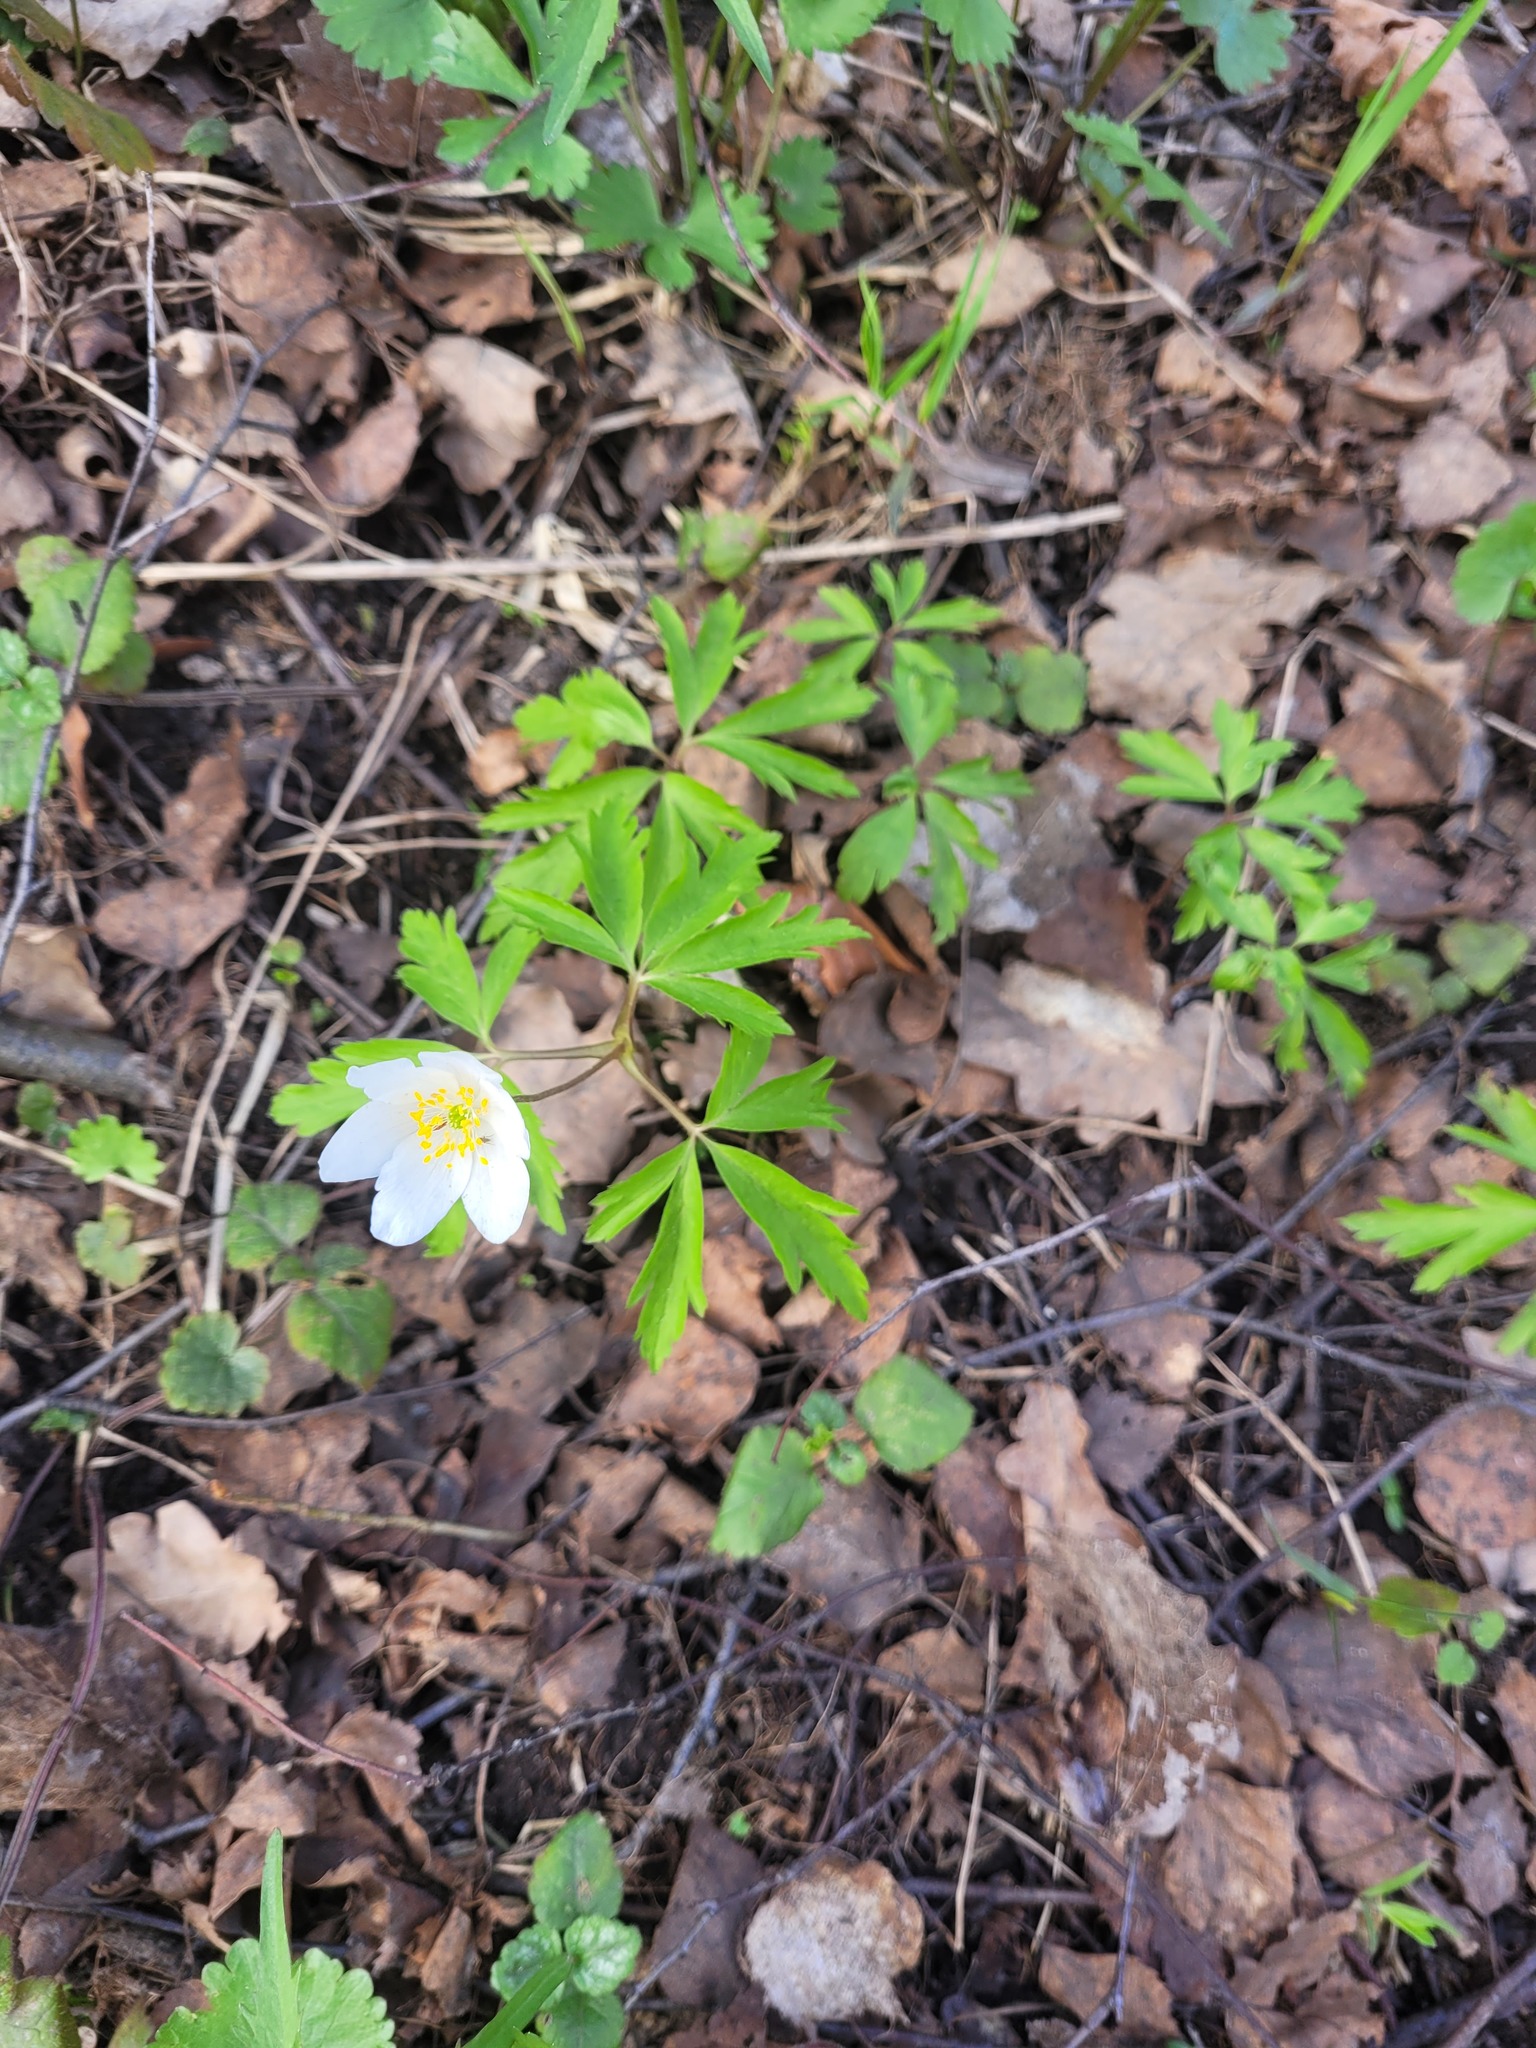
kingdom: Plantae
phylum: Tracheophyta
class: Magnoliopsida
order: Ranunculales
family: Ranunculaceae
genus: Anemone
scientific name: Anemone nemorosa
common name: Wood anemone
